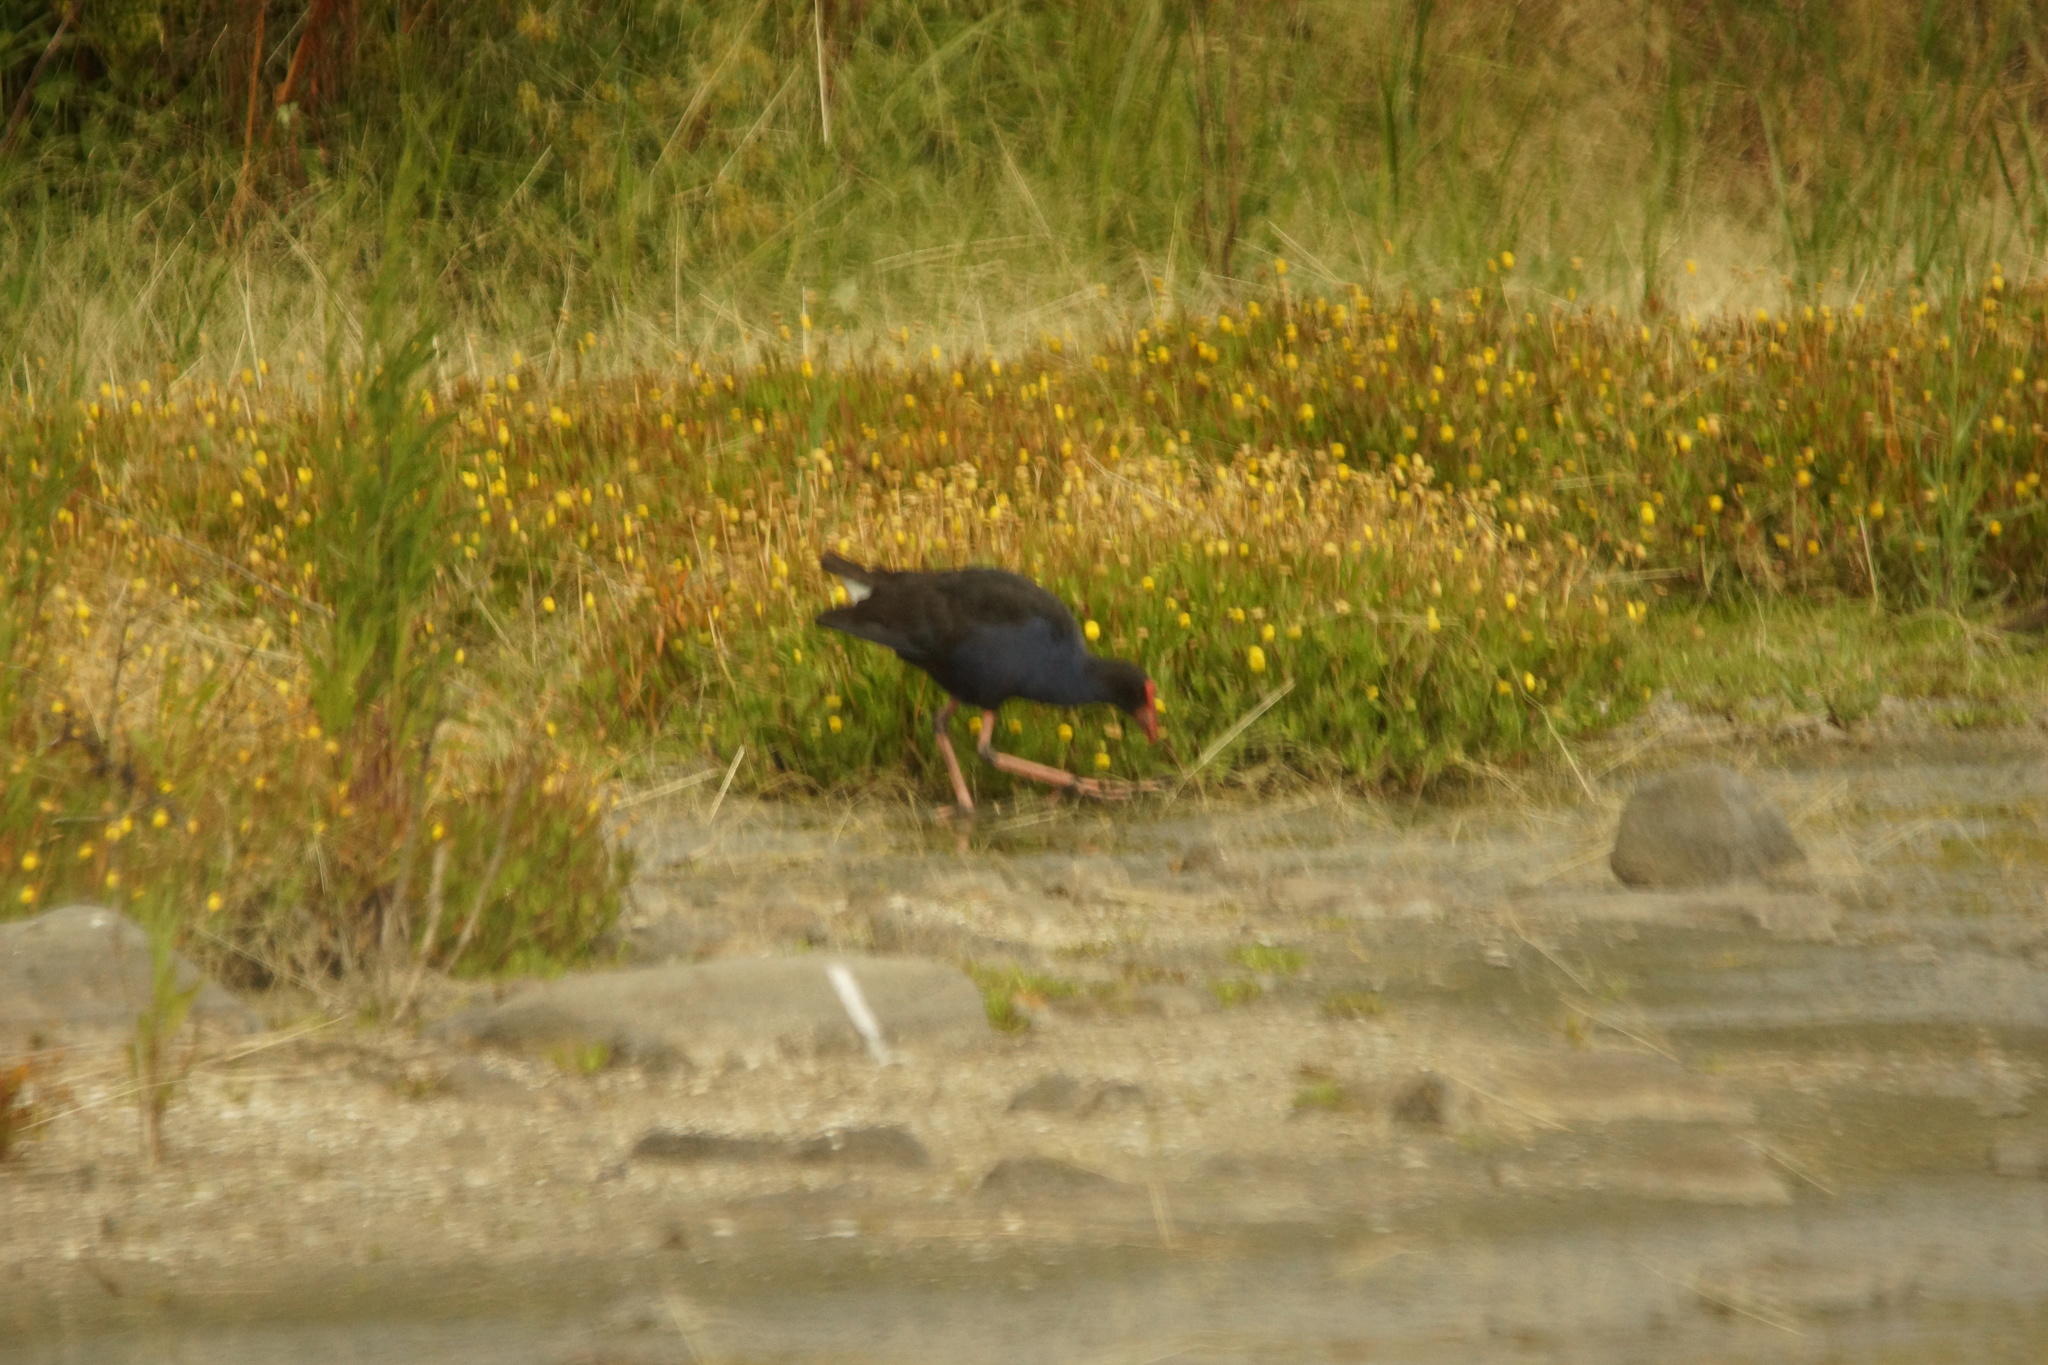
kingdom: Animalia
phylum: Chordata
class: Aves
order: Gruiformes
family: Rallidae
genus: Porphyrio
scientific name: Porphyrio melanotus
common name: Australasian swamphen
